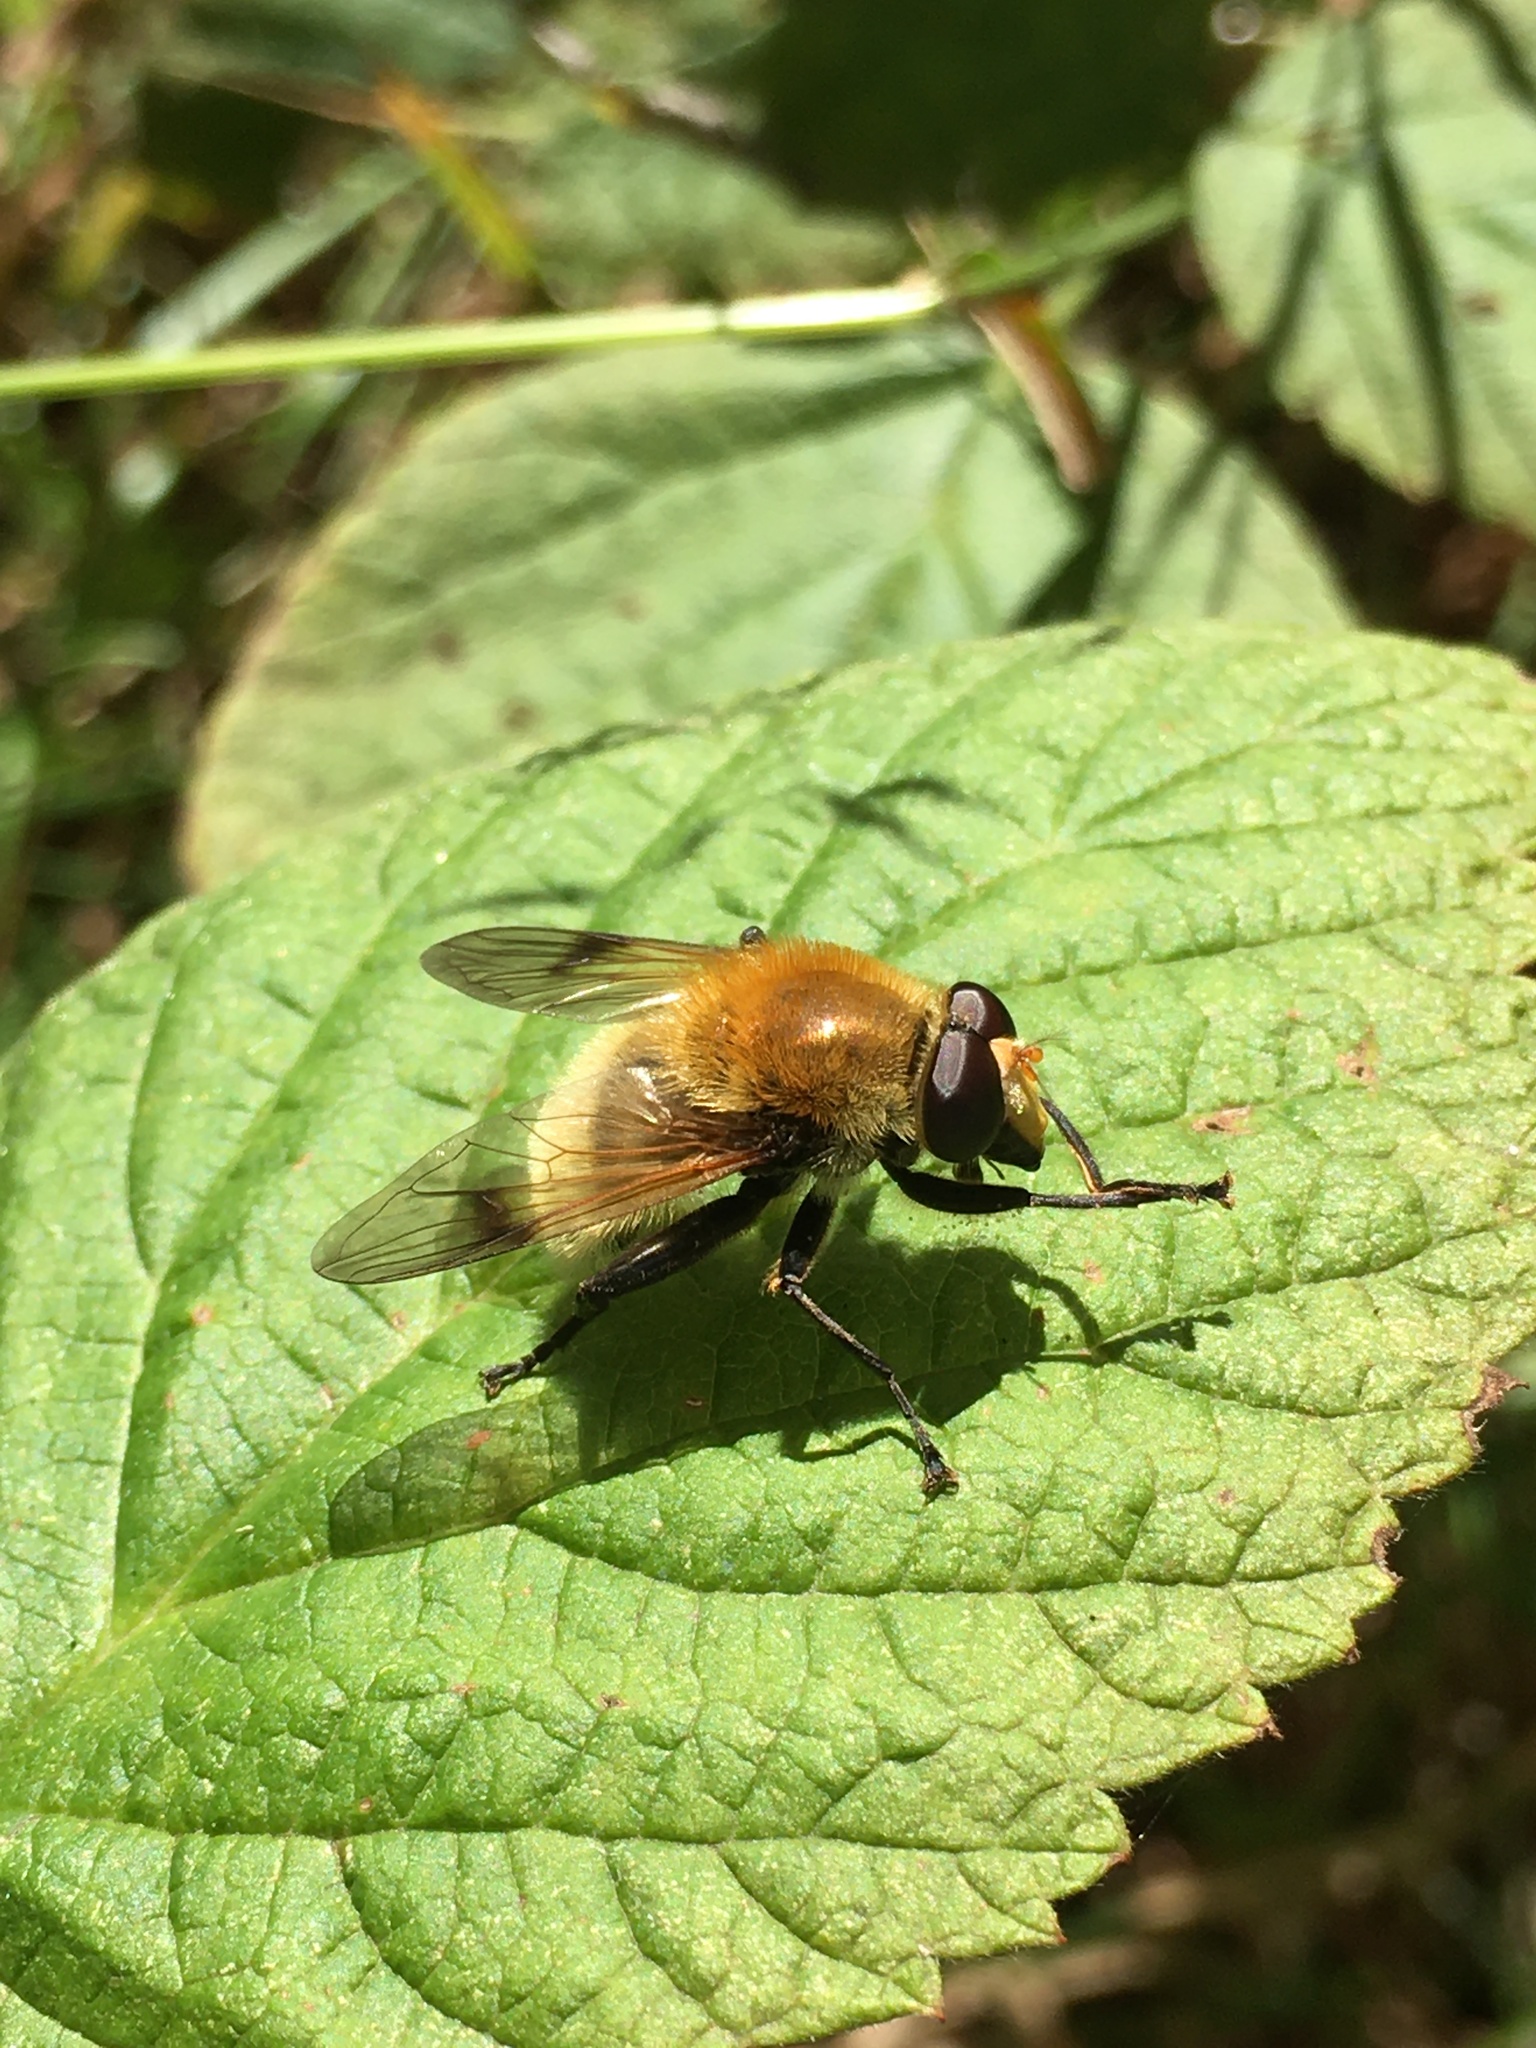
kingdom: Animalia
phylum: Arthropoda
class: Insecta
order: Diptera
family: Syrphidae
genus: Sericomyia
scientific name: Sericomyia superbiens
